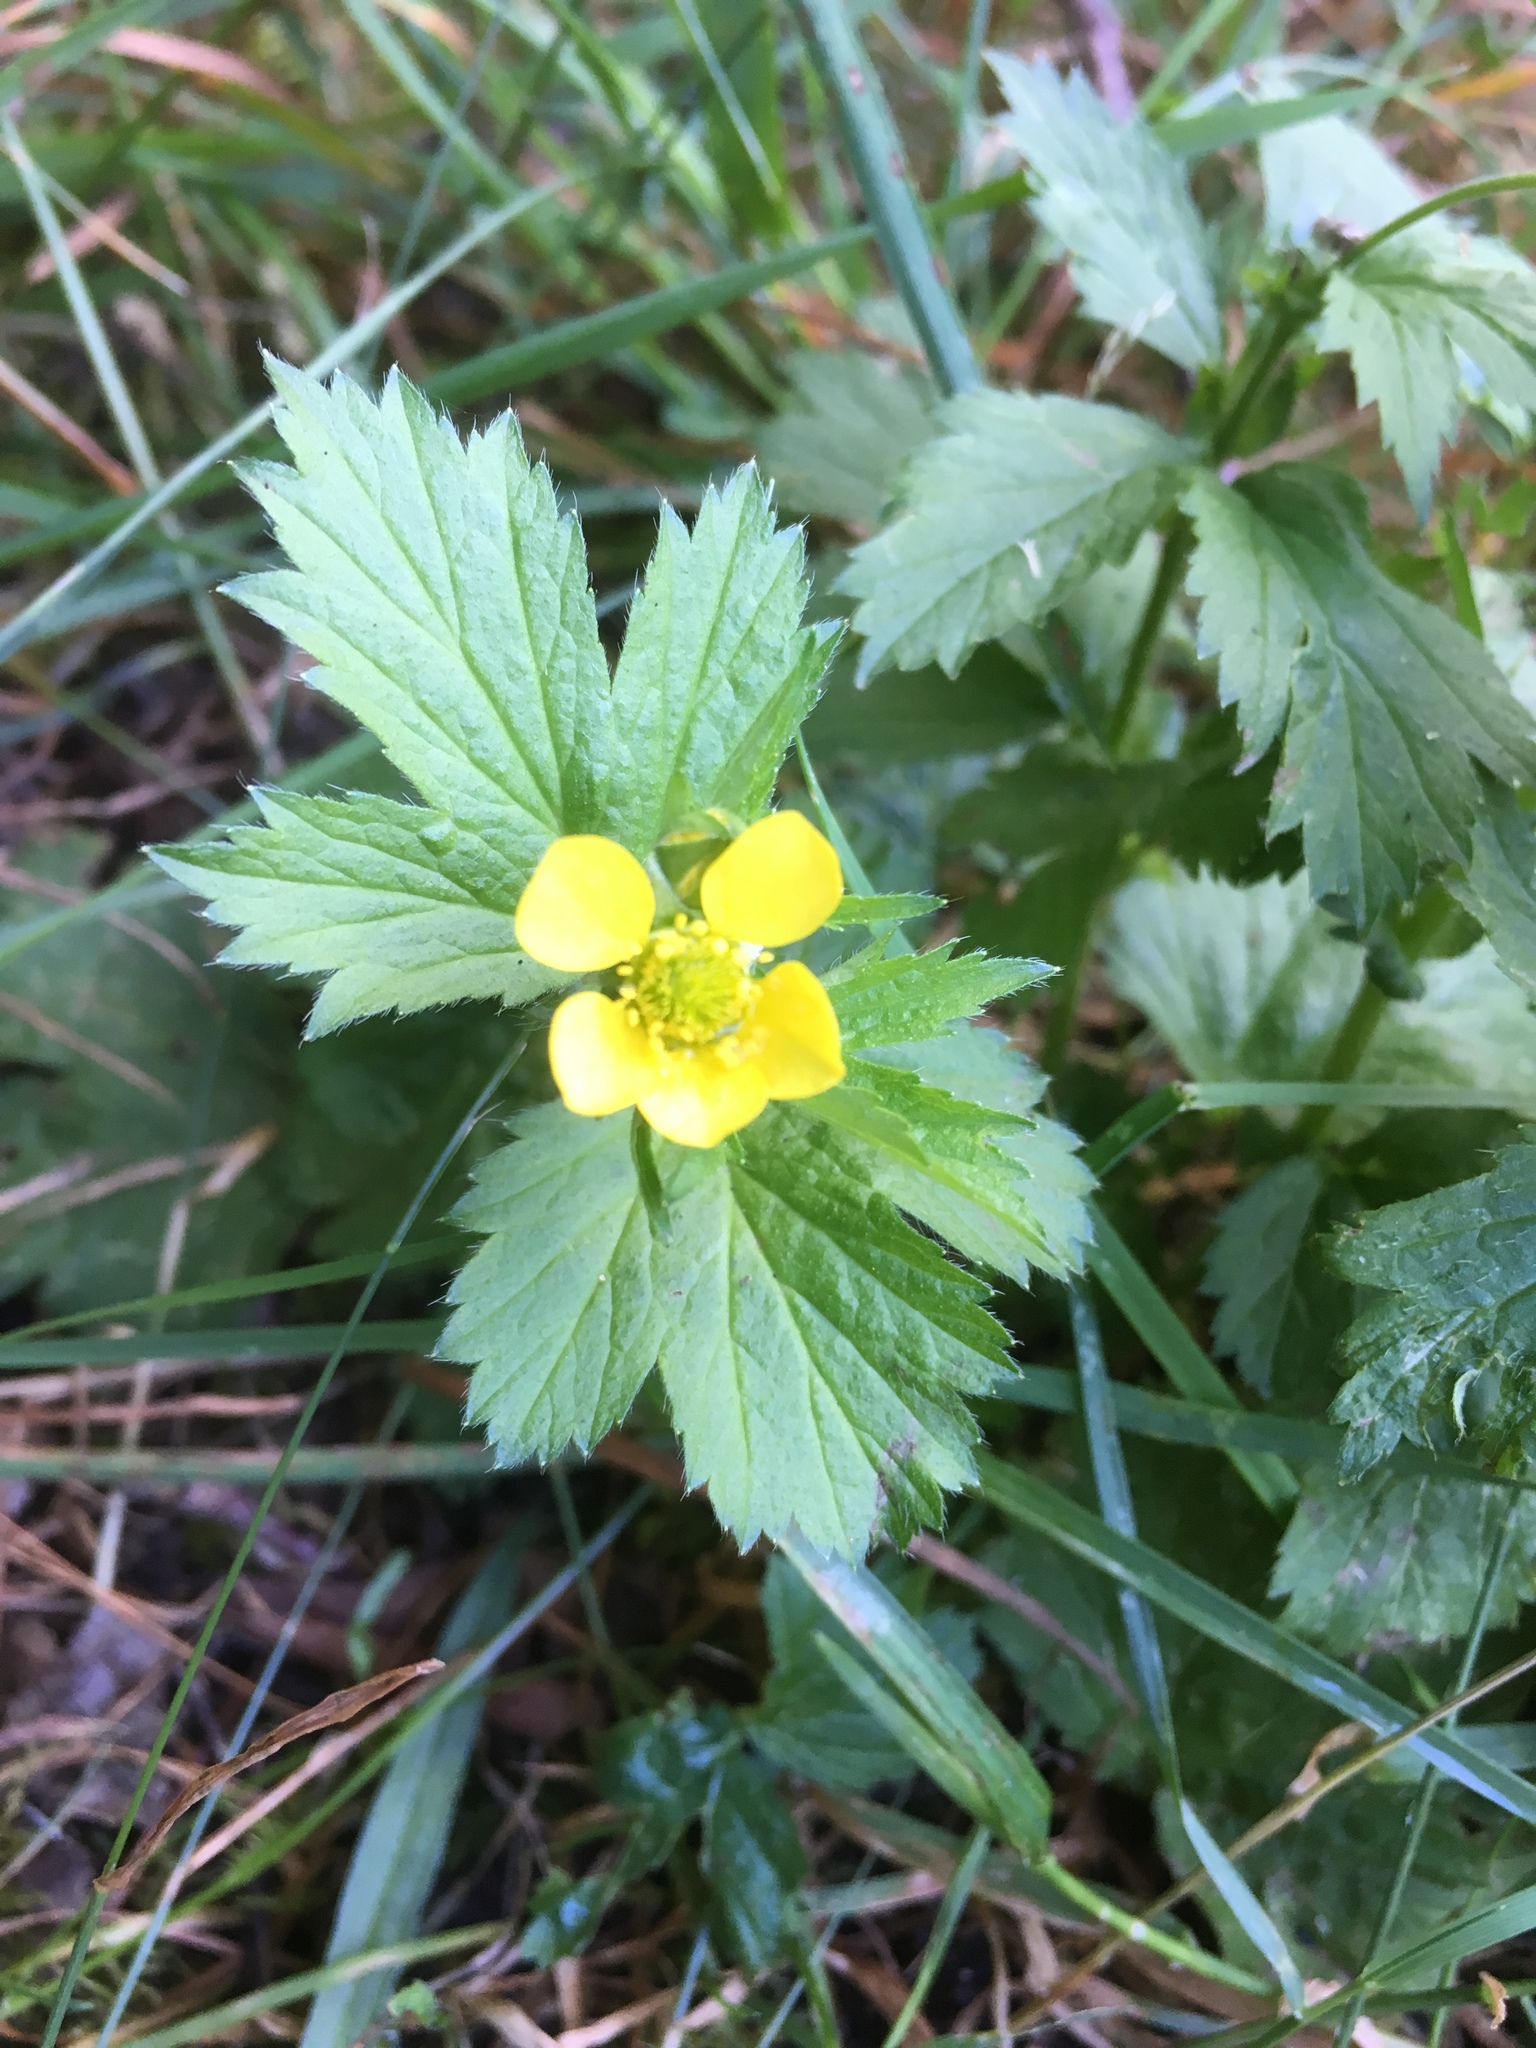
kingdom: Plantae
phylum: Tracheophyta
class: Magnoliopsida
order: Rosales
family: Rosaceae
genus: Geum
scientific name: Geum macrophyllum
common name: Large-leaved avens
